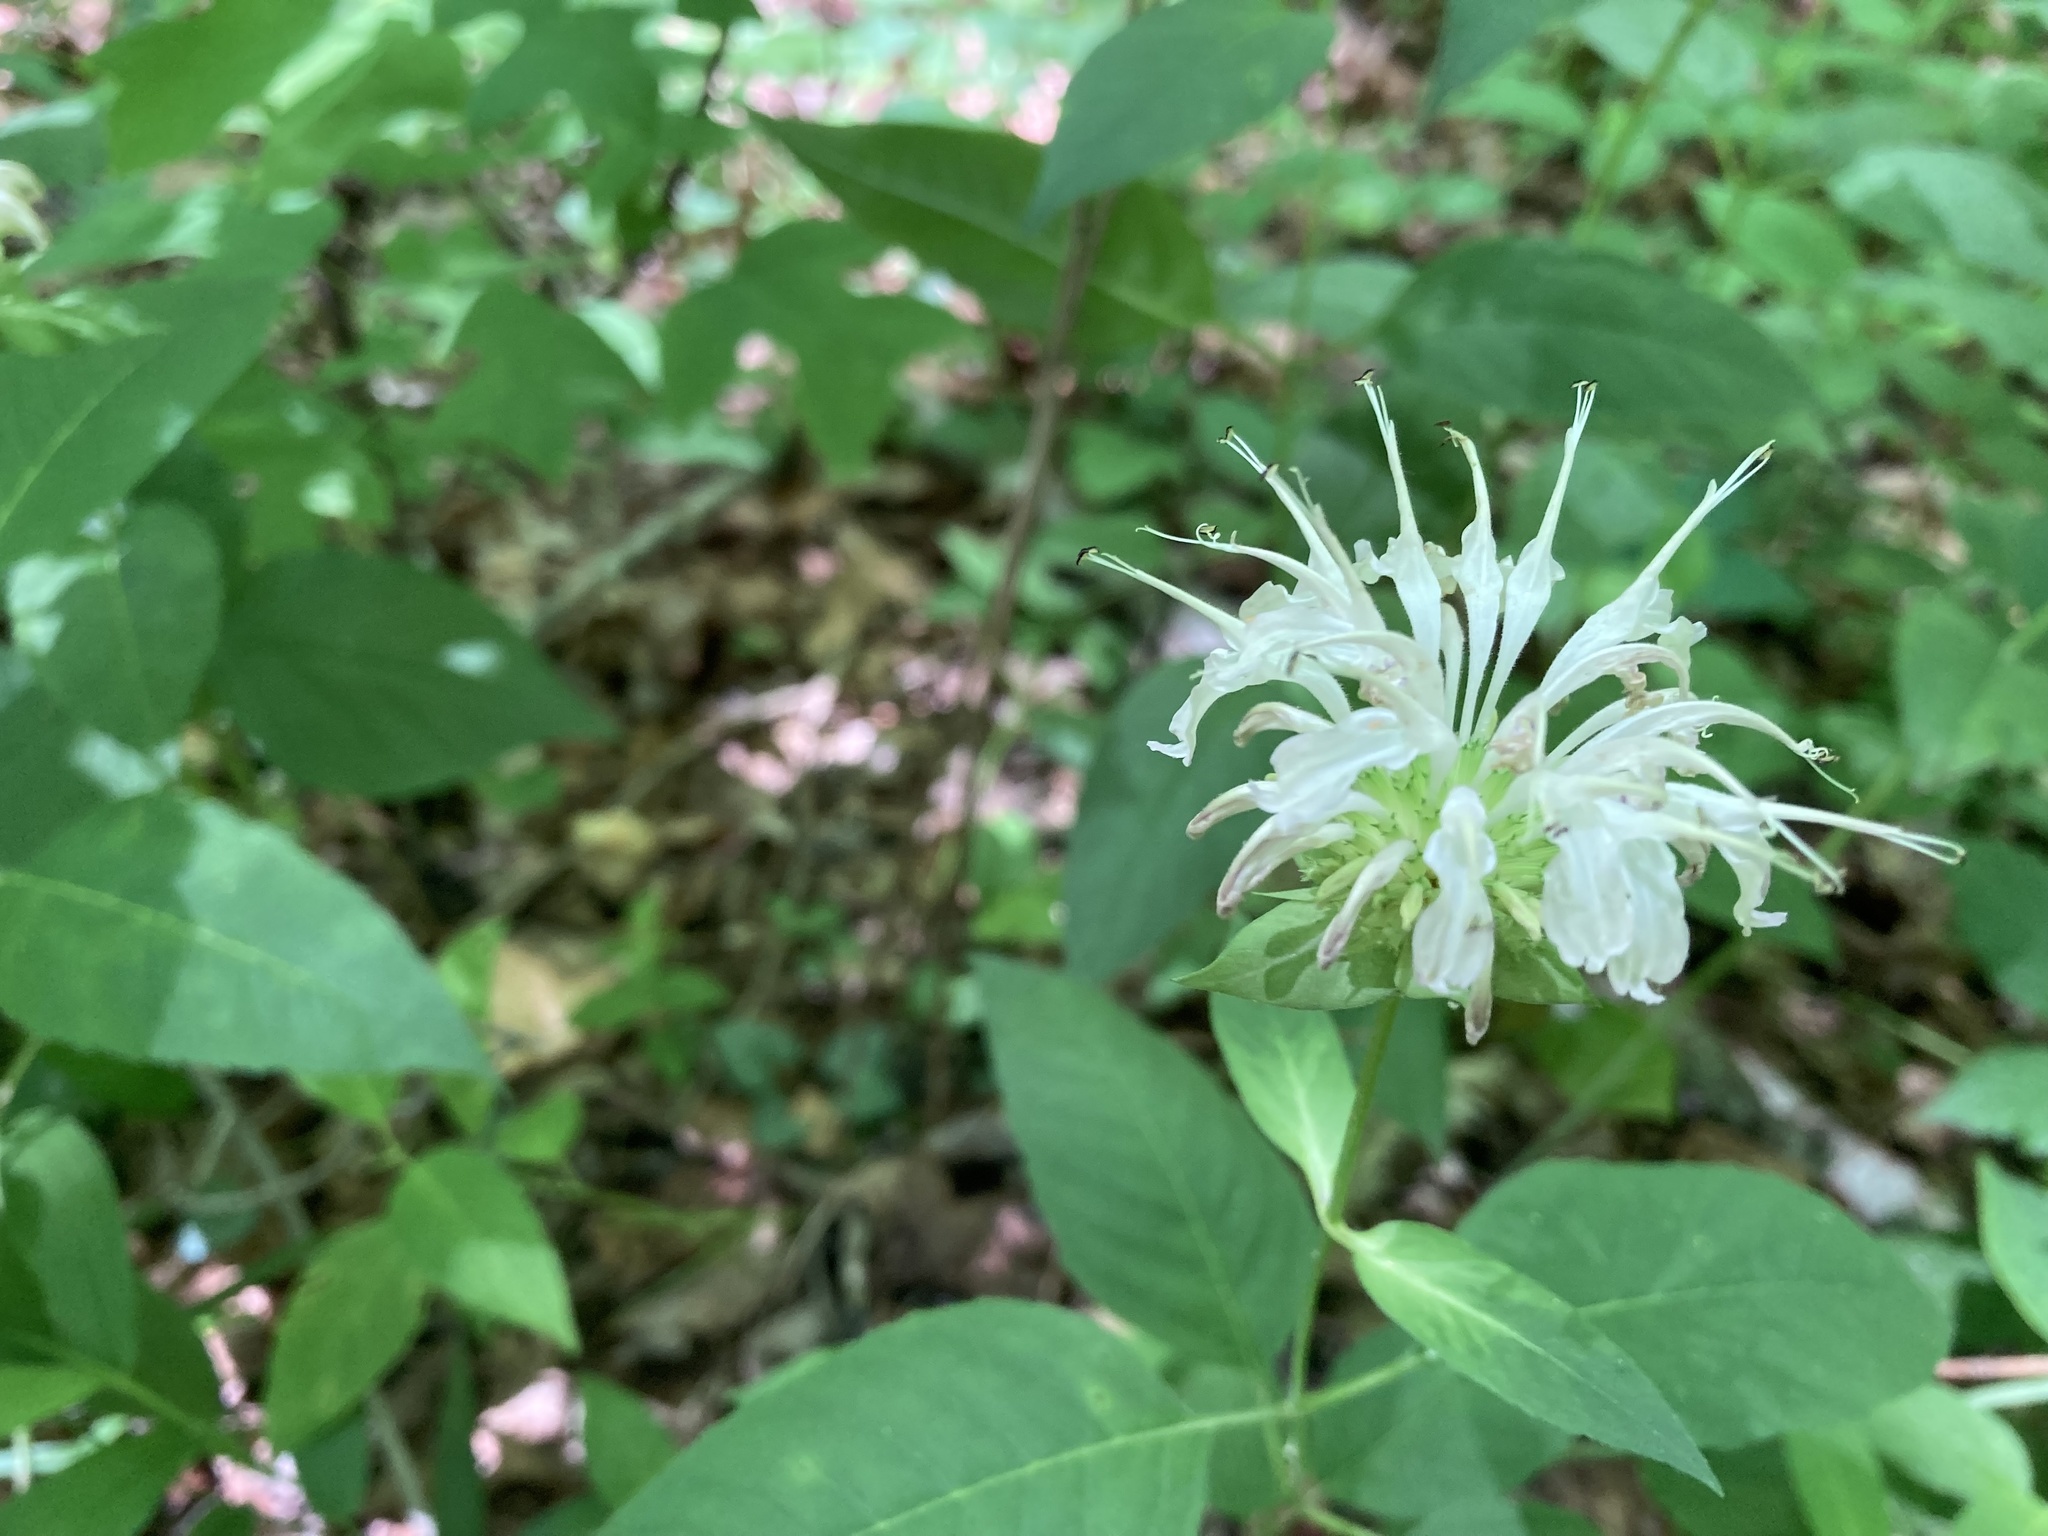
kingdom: Plantae
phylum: Tracheophyta
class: Magnoliopsida
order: Lamiales
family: Lamiaceae
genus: Monarda
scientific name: Monarda clinopodia
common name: Basil beebalm
